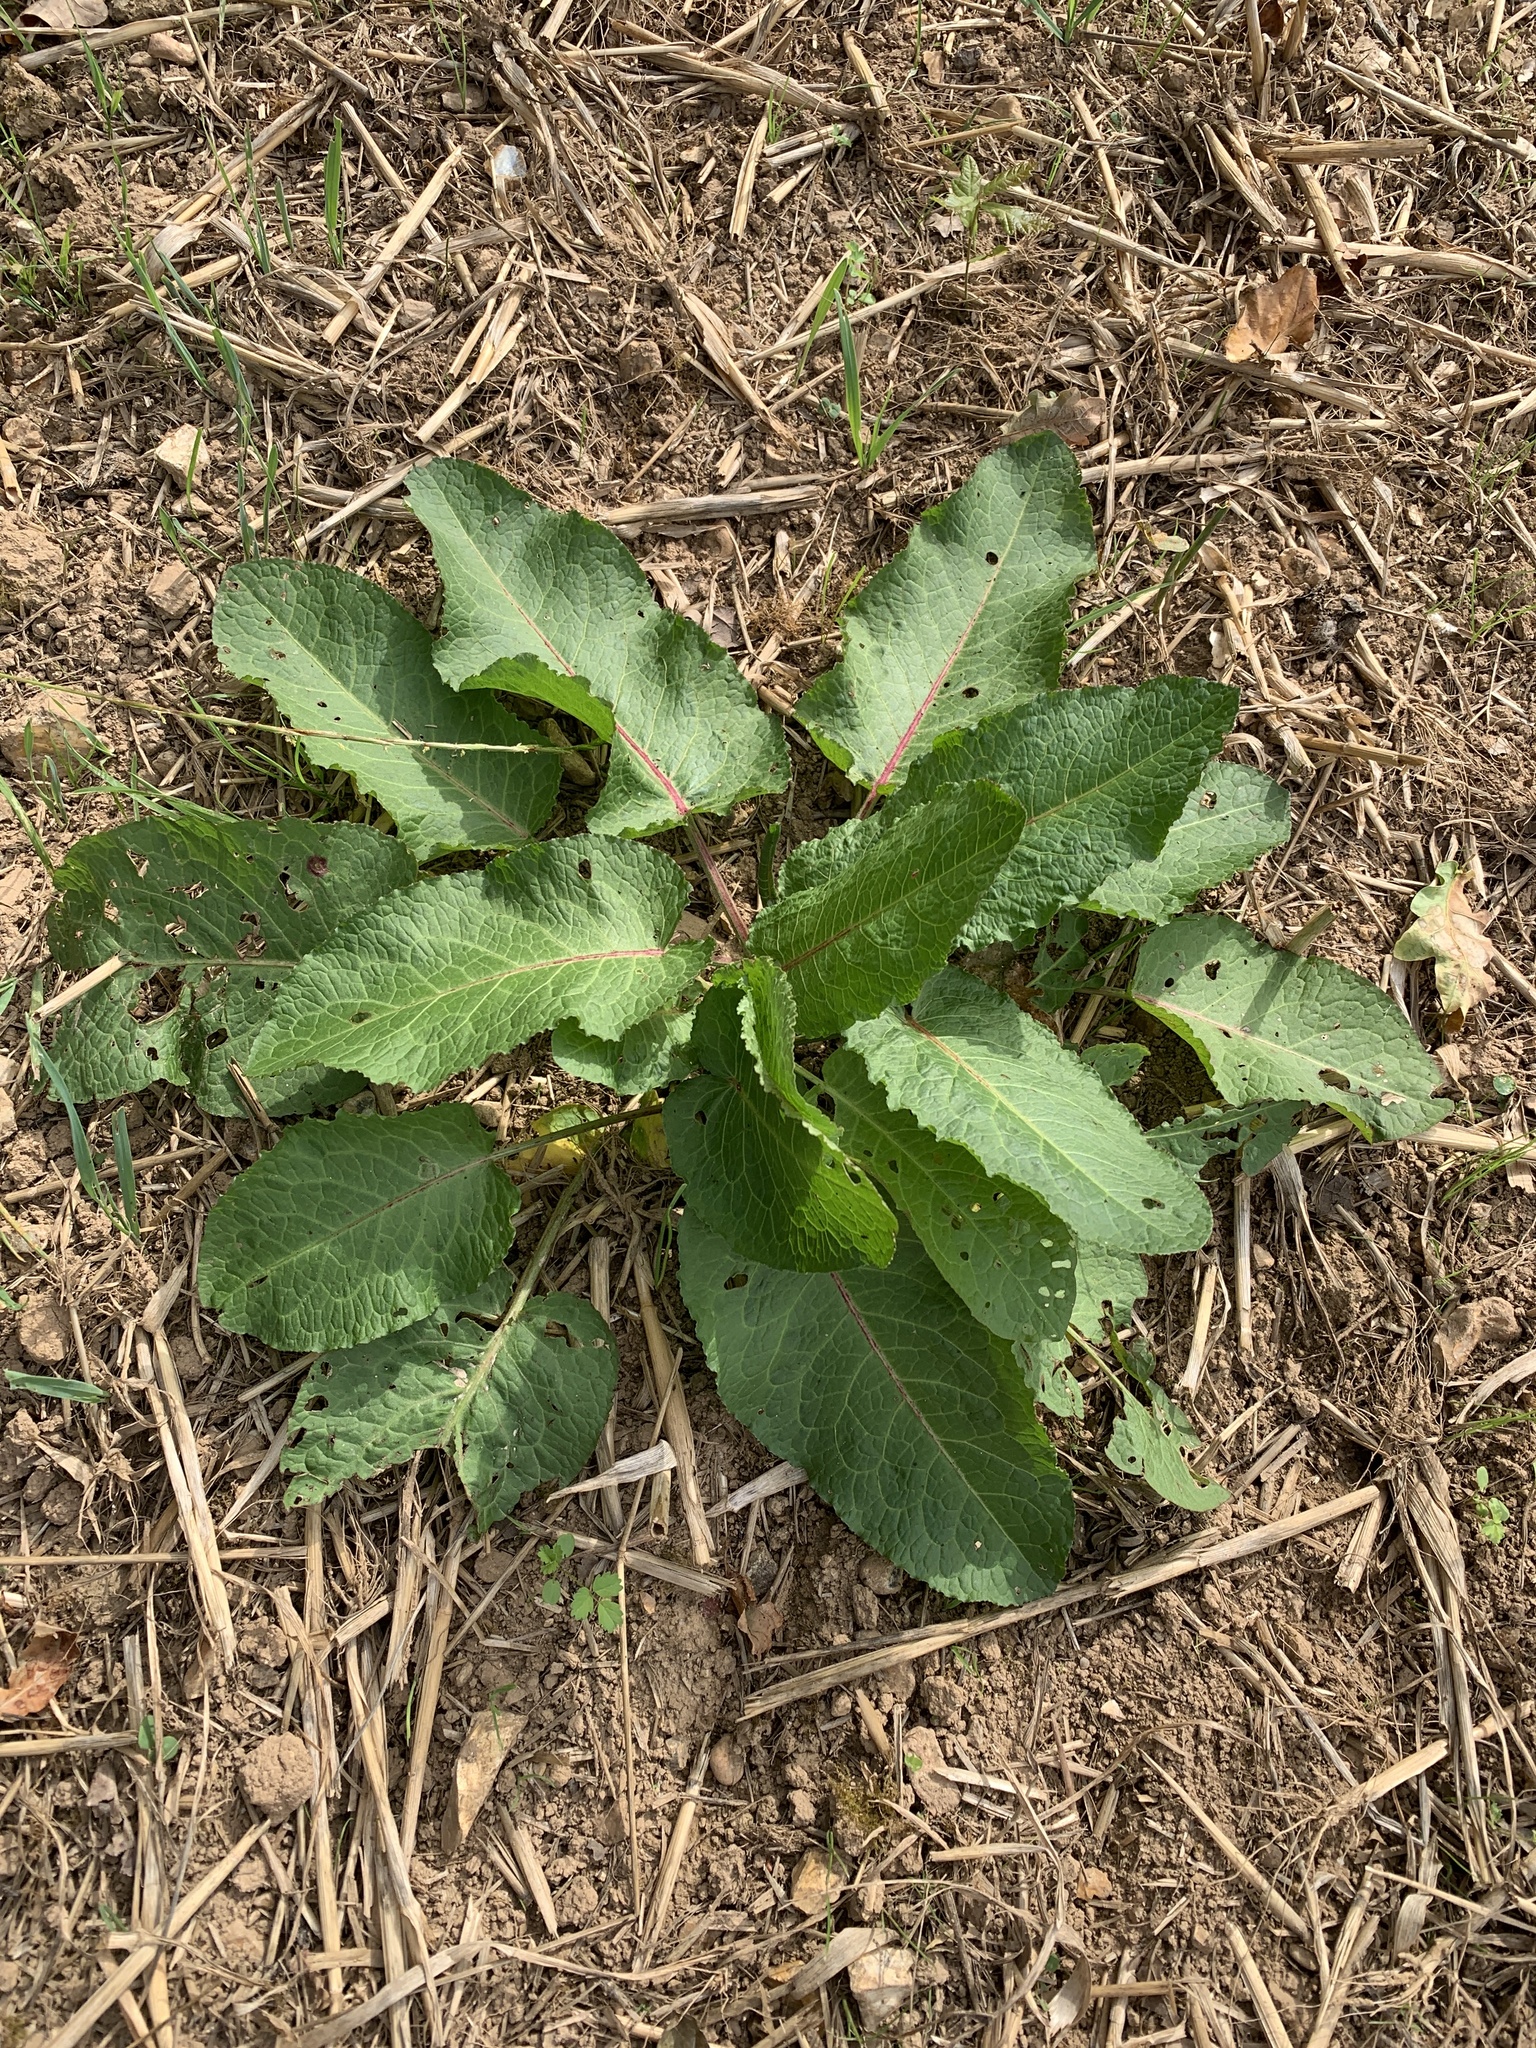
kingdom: Plantae
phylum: Tracheophyta
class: Magnoliopsida
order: Caryophyllales
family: Polygonaceae
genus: Rumex
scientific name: Rumex obtusifolius
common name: Bitter dock
